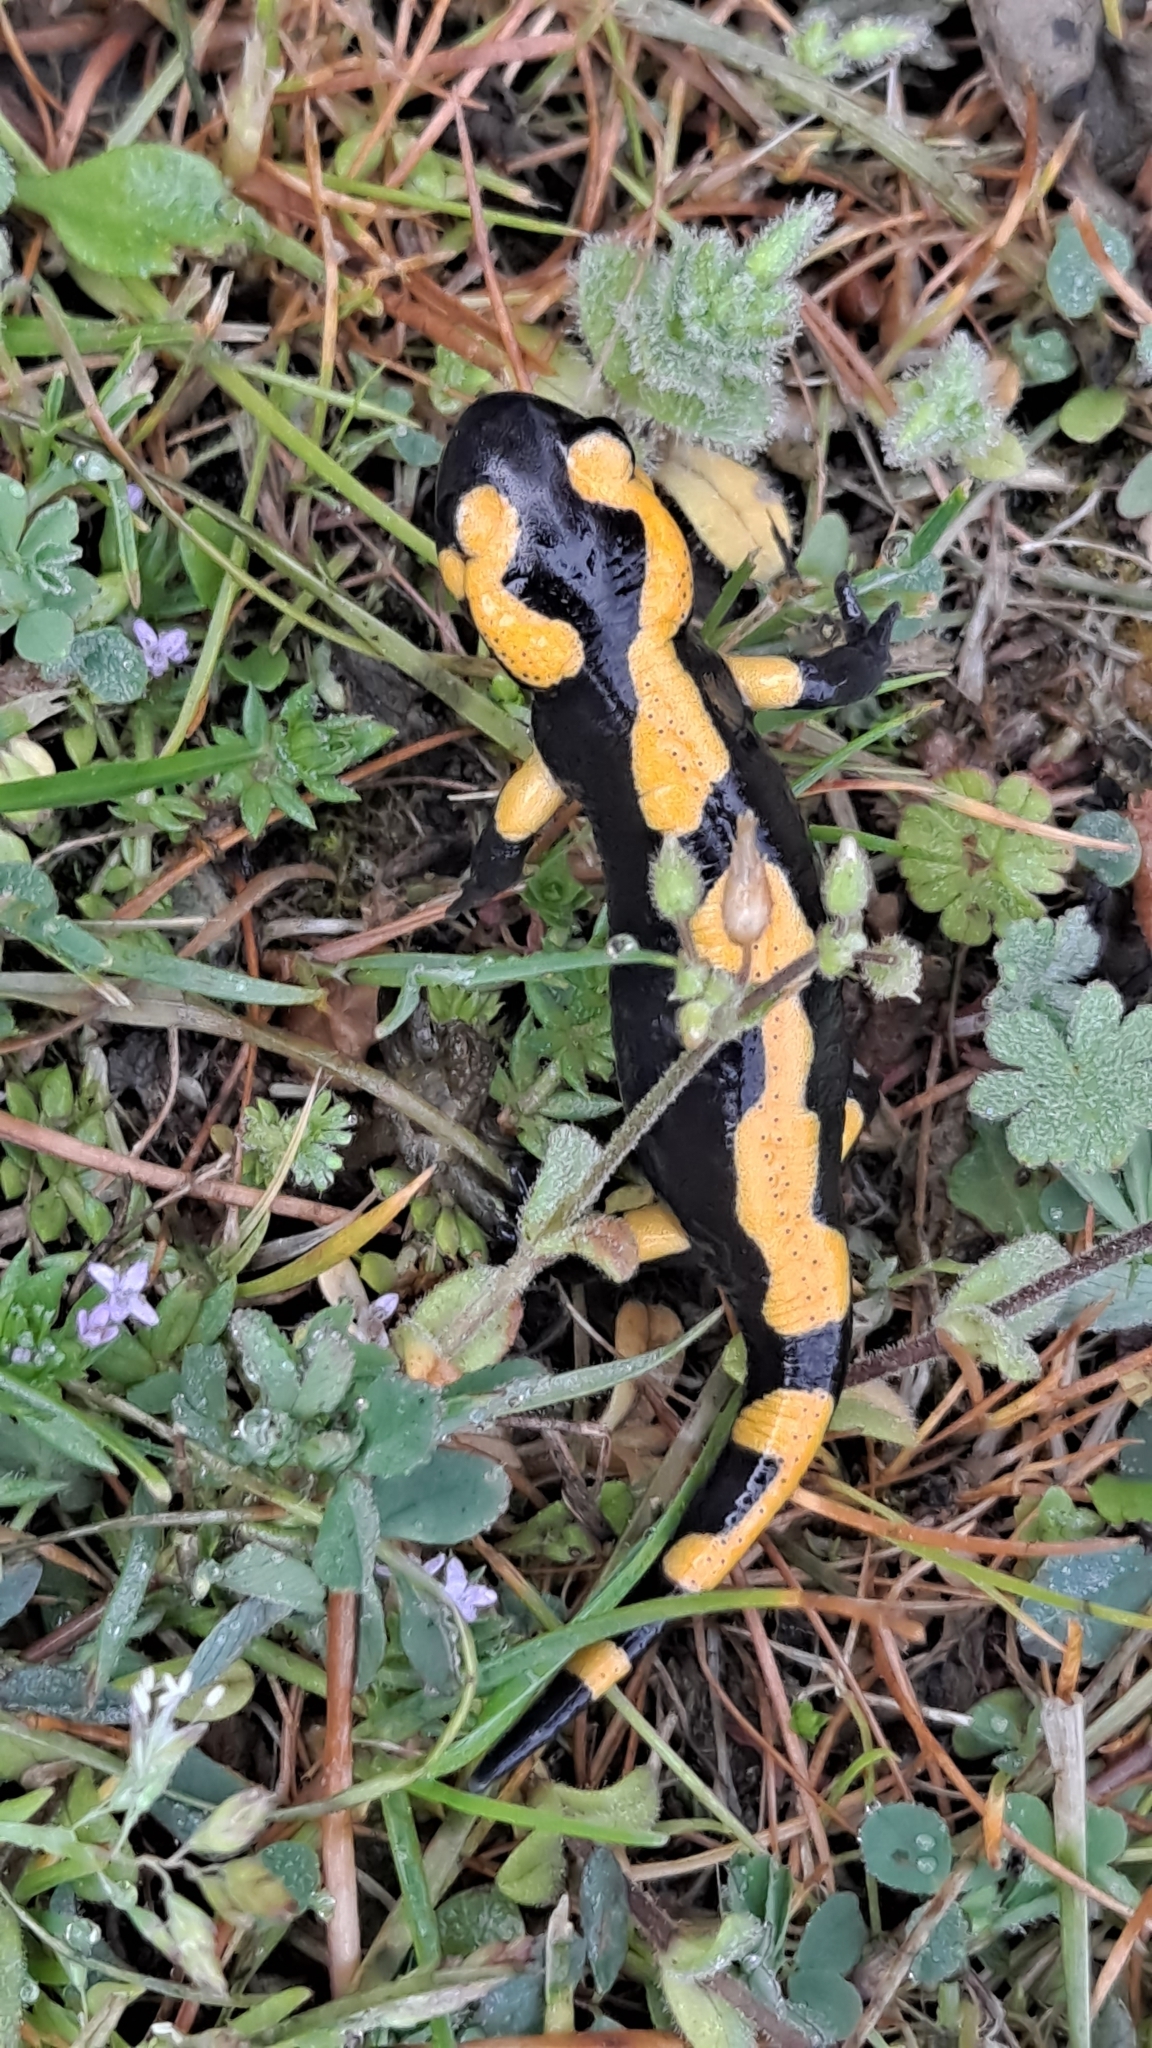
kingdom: Animalia
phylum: Chordata
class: Amphibia
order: Caudata
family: Salamandridae
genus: Salamandra
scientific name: Salamandra salamandra
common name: Fire salamander
